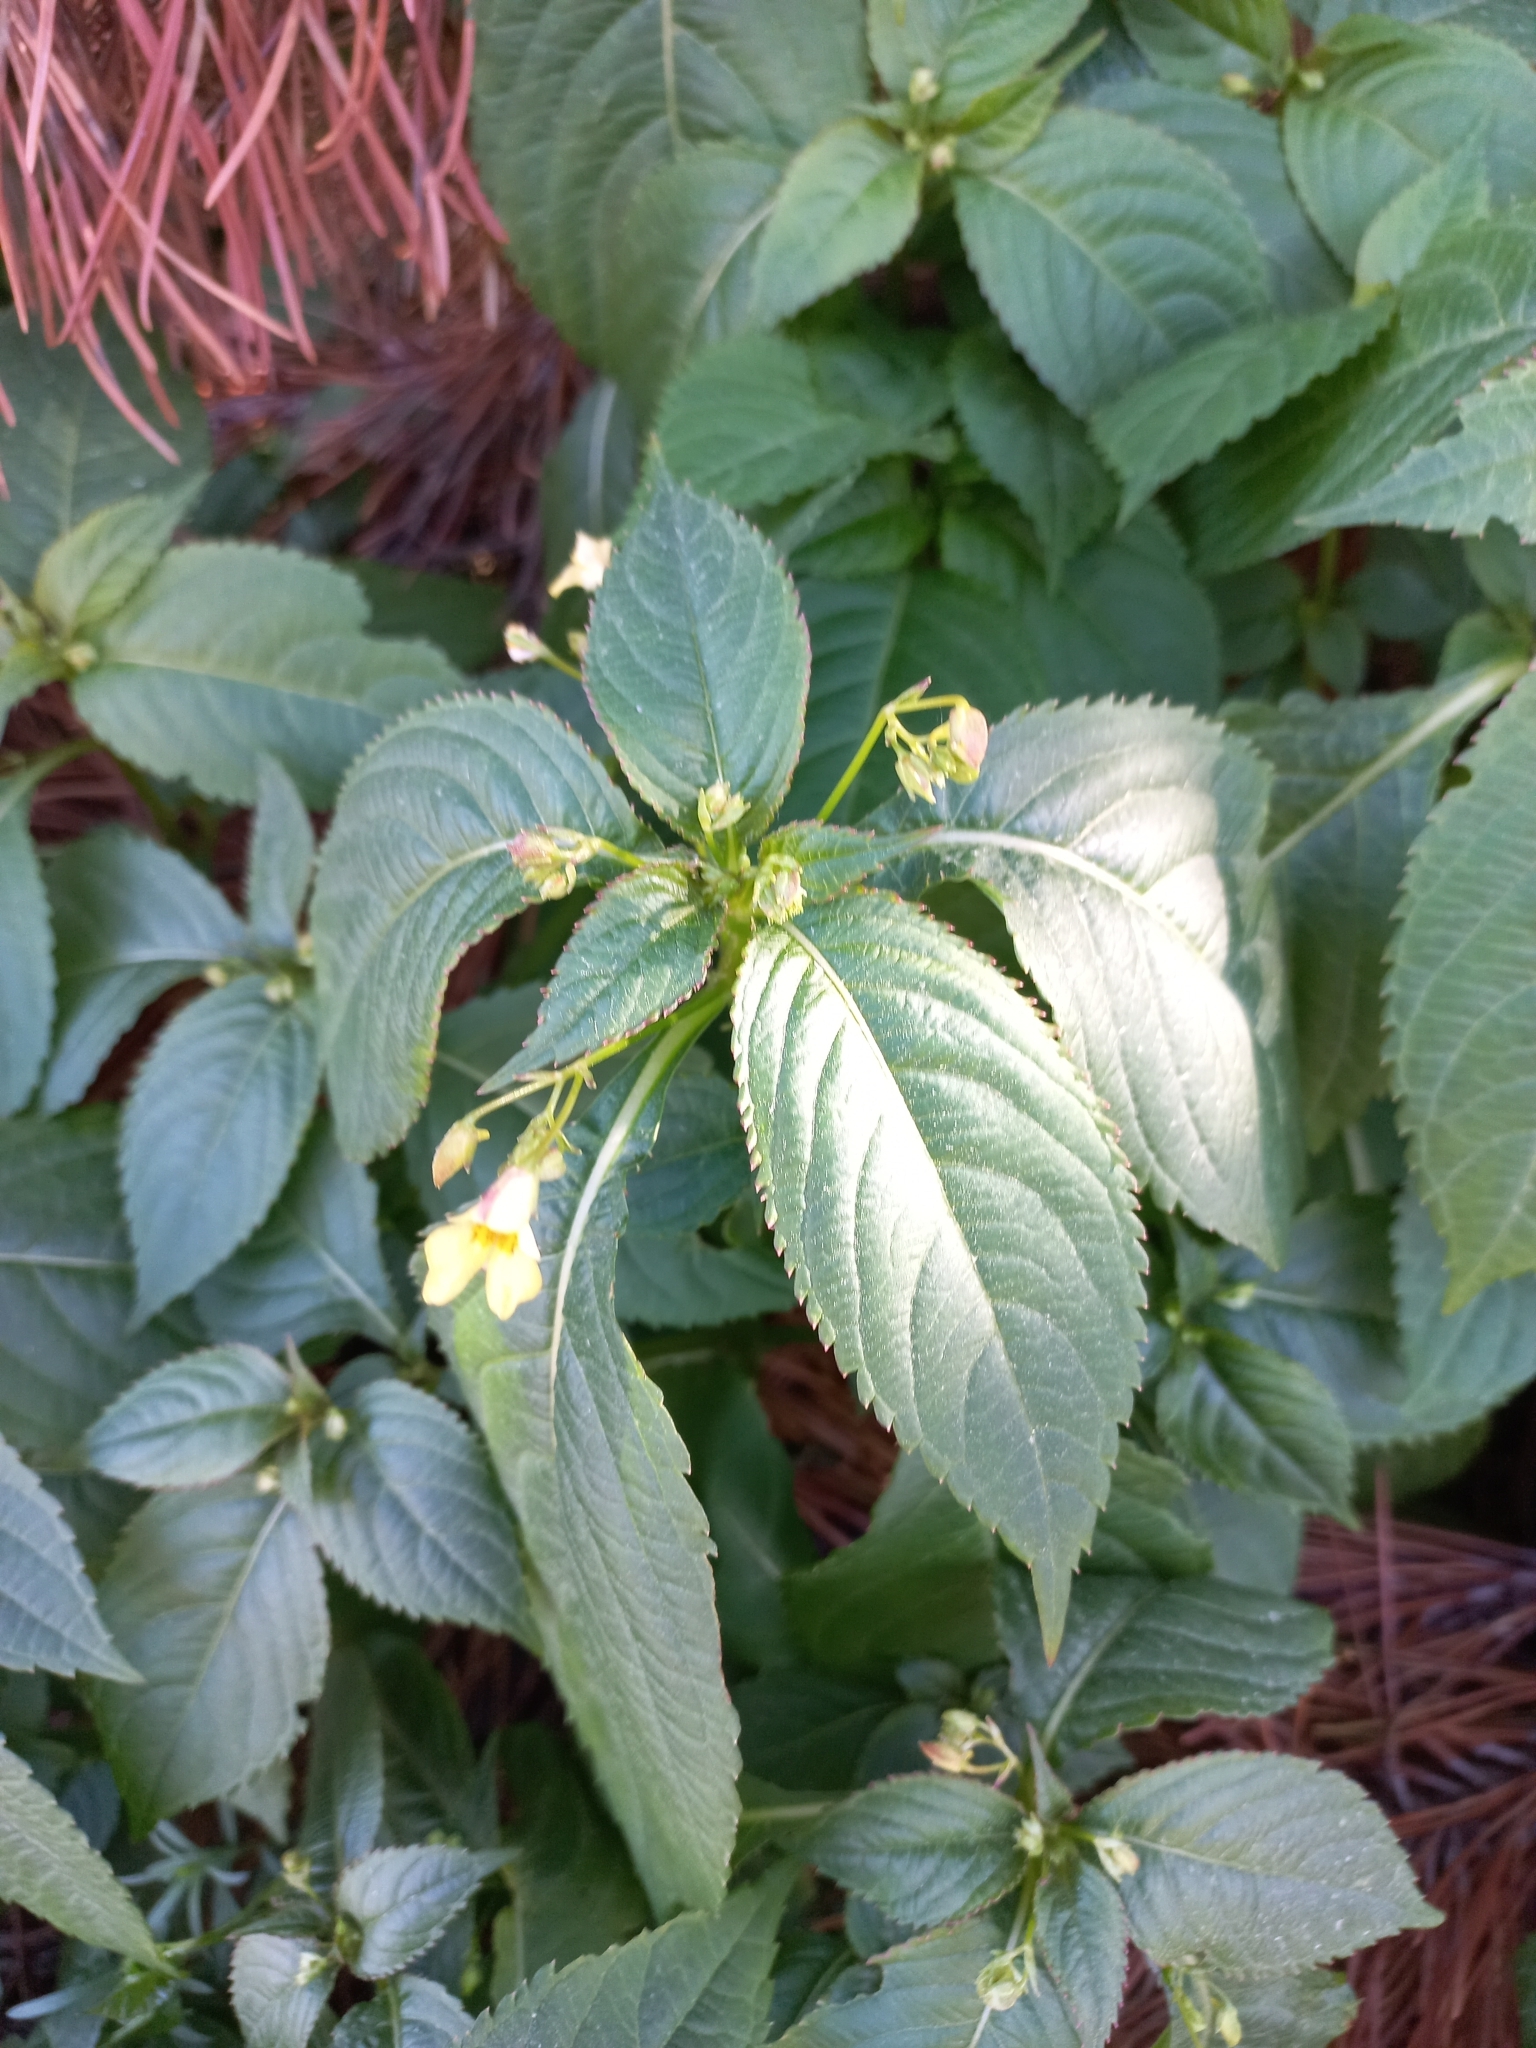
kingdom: Plantae
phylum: Tracheophyta
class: Magnoliopsida
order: Ericales
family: Balsaminaceae
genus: Impatiens
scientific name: Impatiens parviflora
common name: Small balsam
